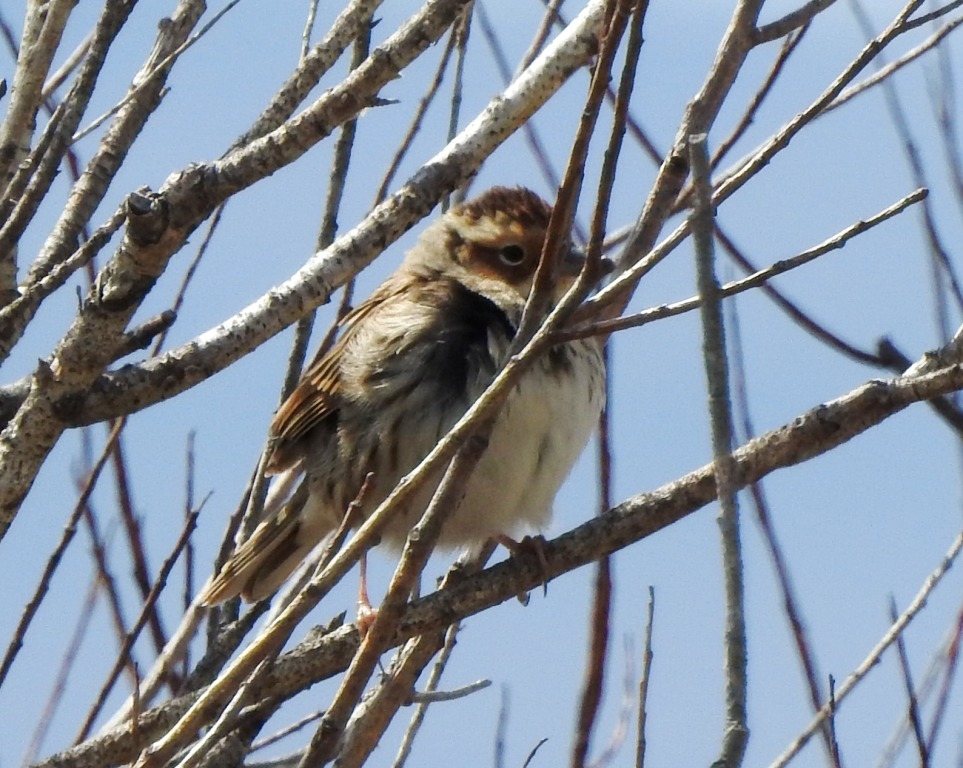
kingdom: Animalia
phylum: Chordata
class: Aves
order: Passeriformes
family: Emberizidae
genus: Emberiza
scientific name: Emberiza pusilla
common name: Little bunting
